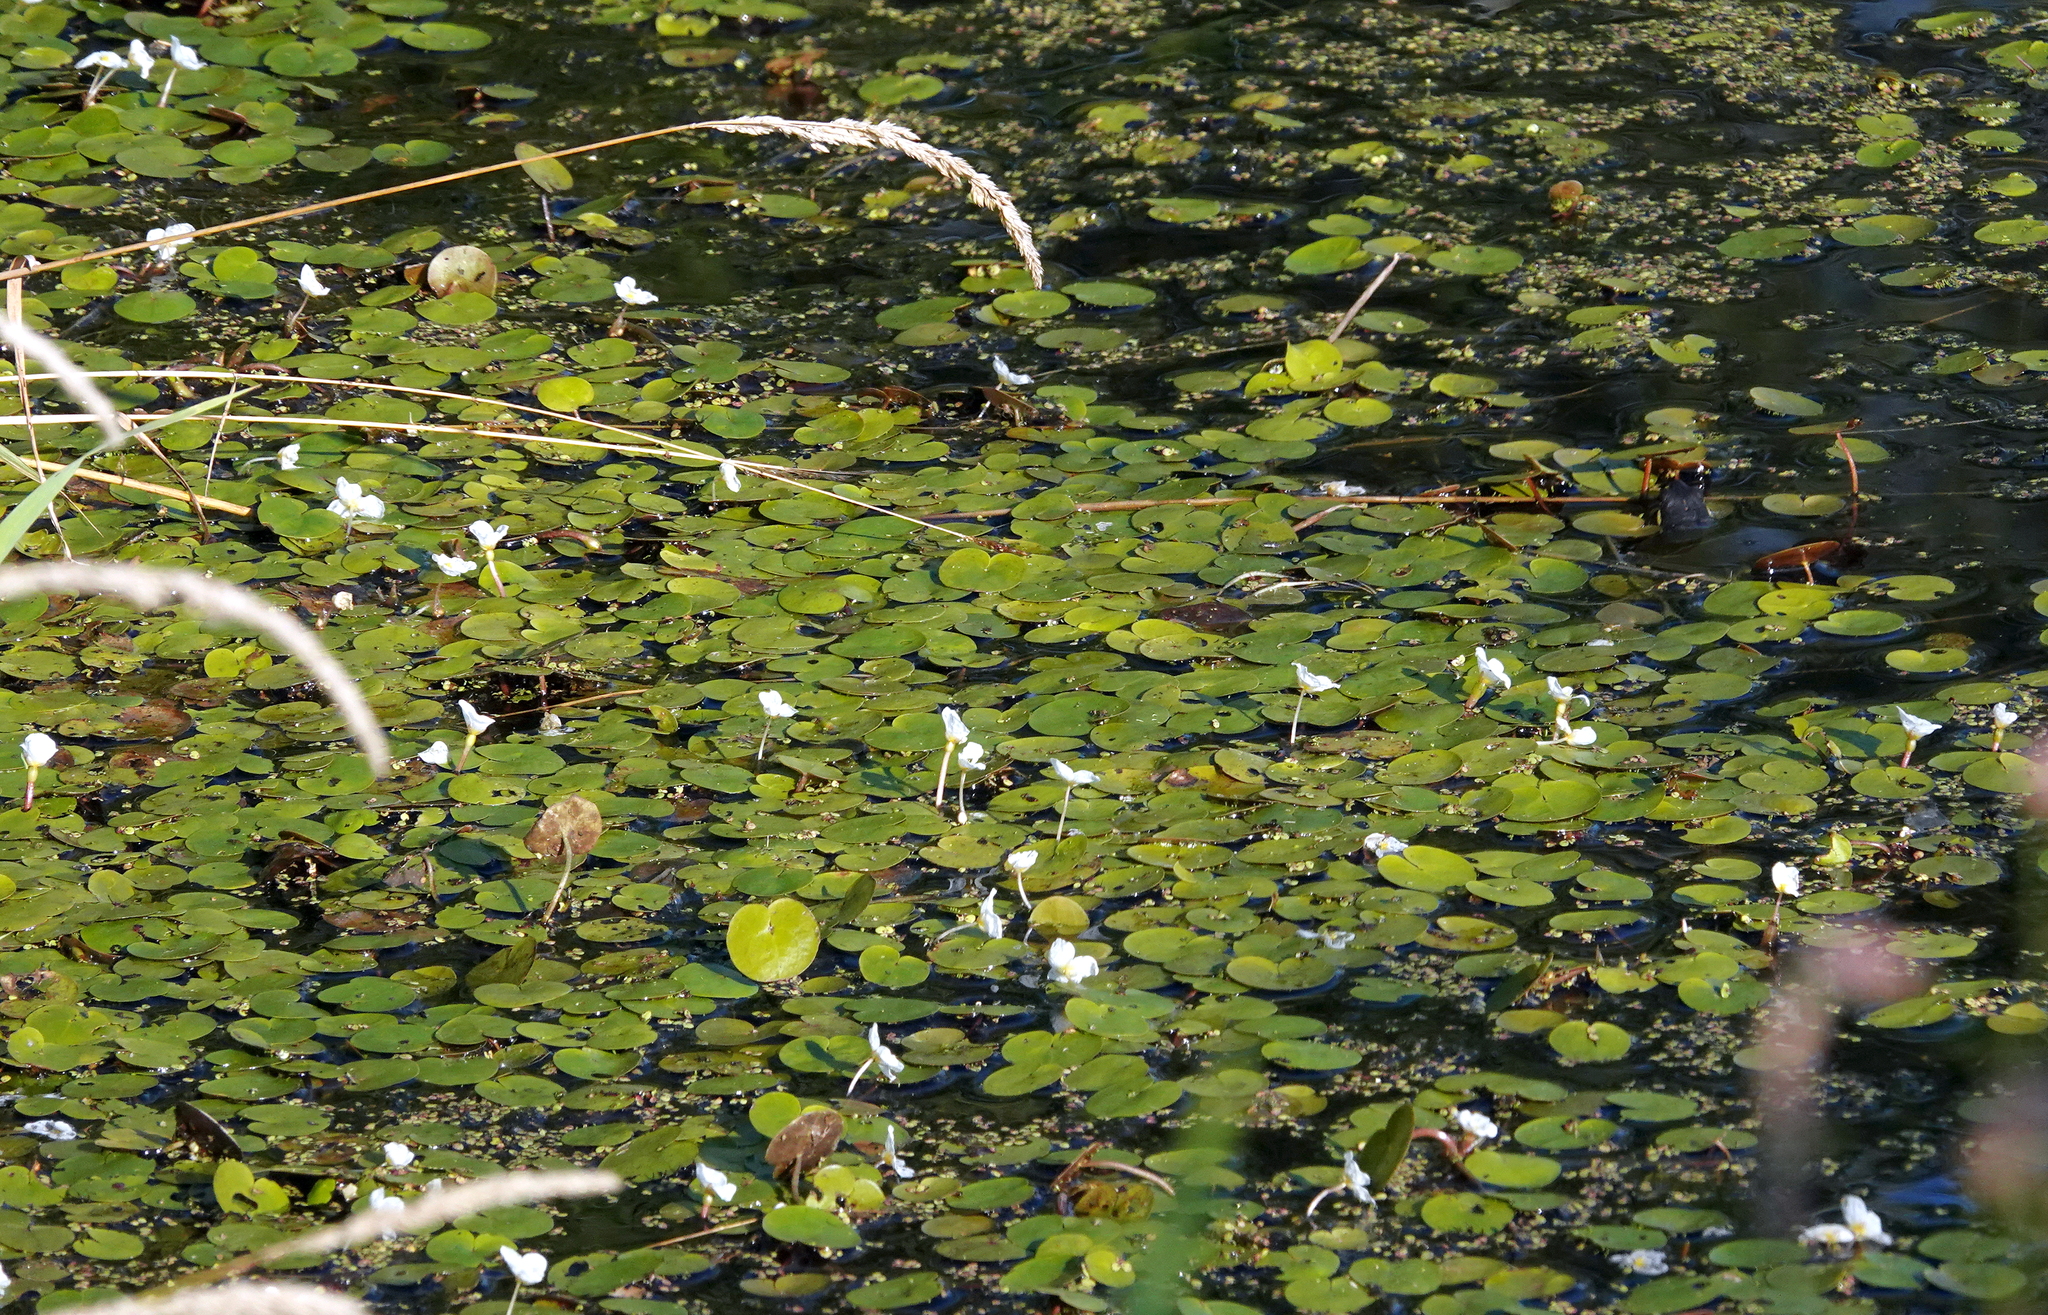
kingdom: Plantae
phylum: Tracheophyta
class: Liliopsida
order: Alismatales
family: Hydrocharitaceae
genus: Hydrocharis
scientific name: Hydrocharis morsus-ranae
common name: Frogbit
